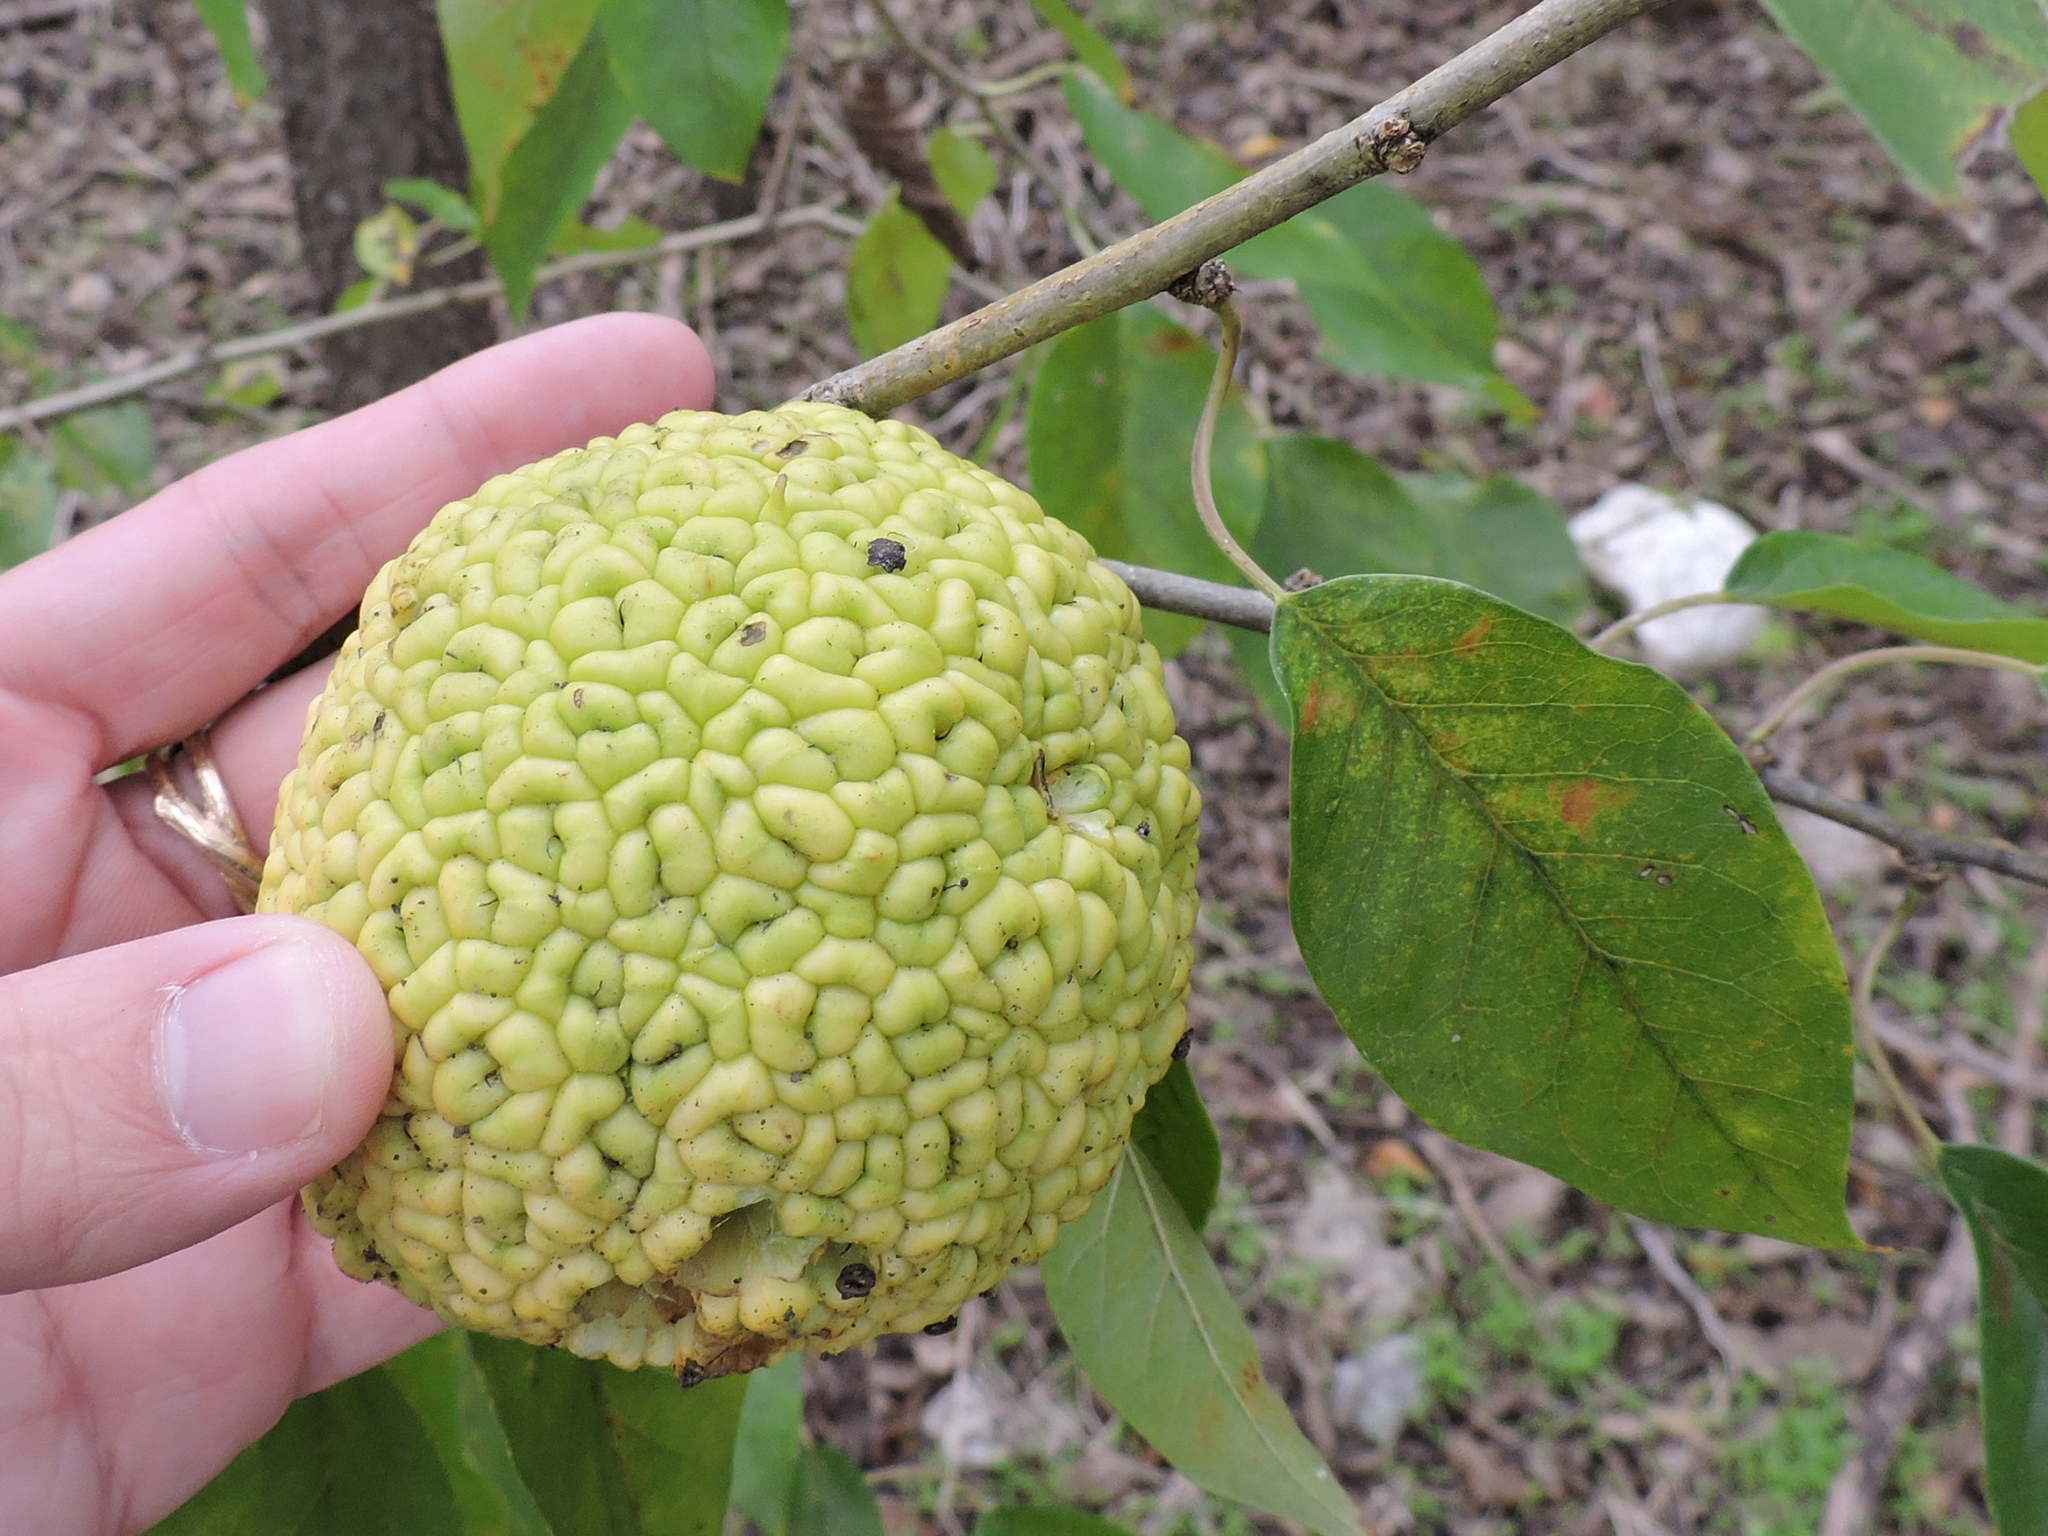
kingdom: Plantae
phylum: Tracheophyta
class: Magnoliopsida
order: Rosales
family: Moraceae
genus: Maclura
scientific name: Maclura pomifera
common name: Osage-orange
